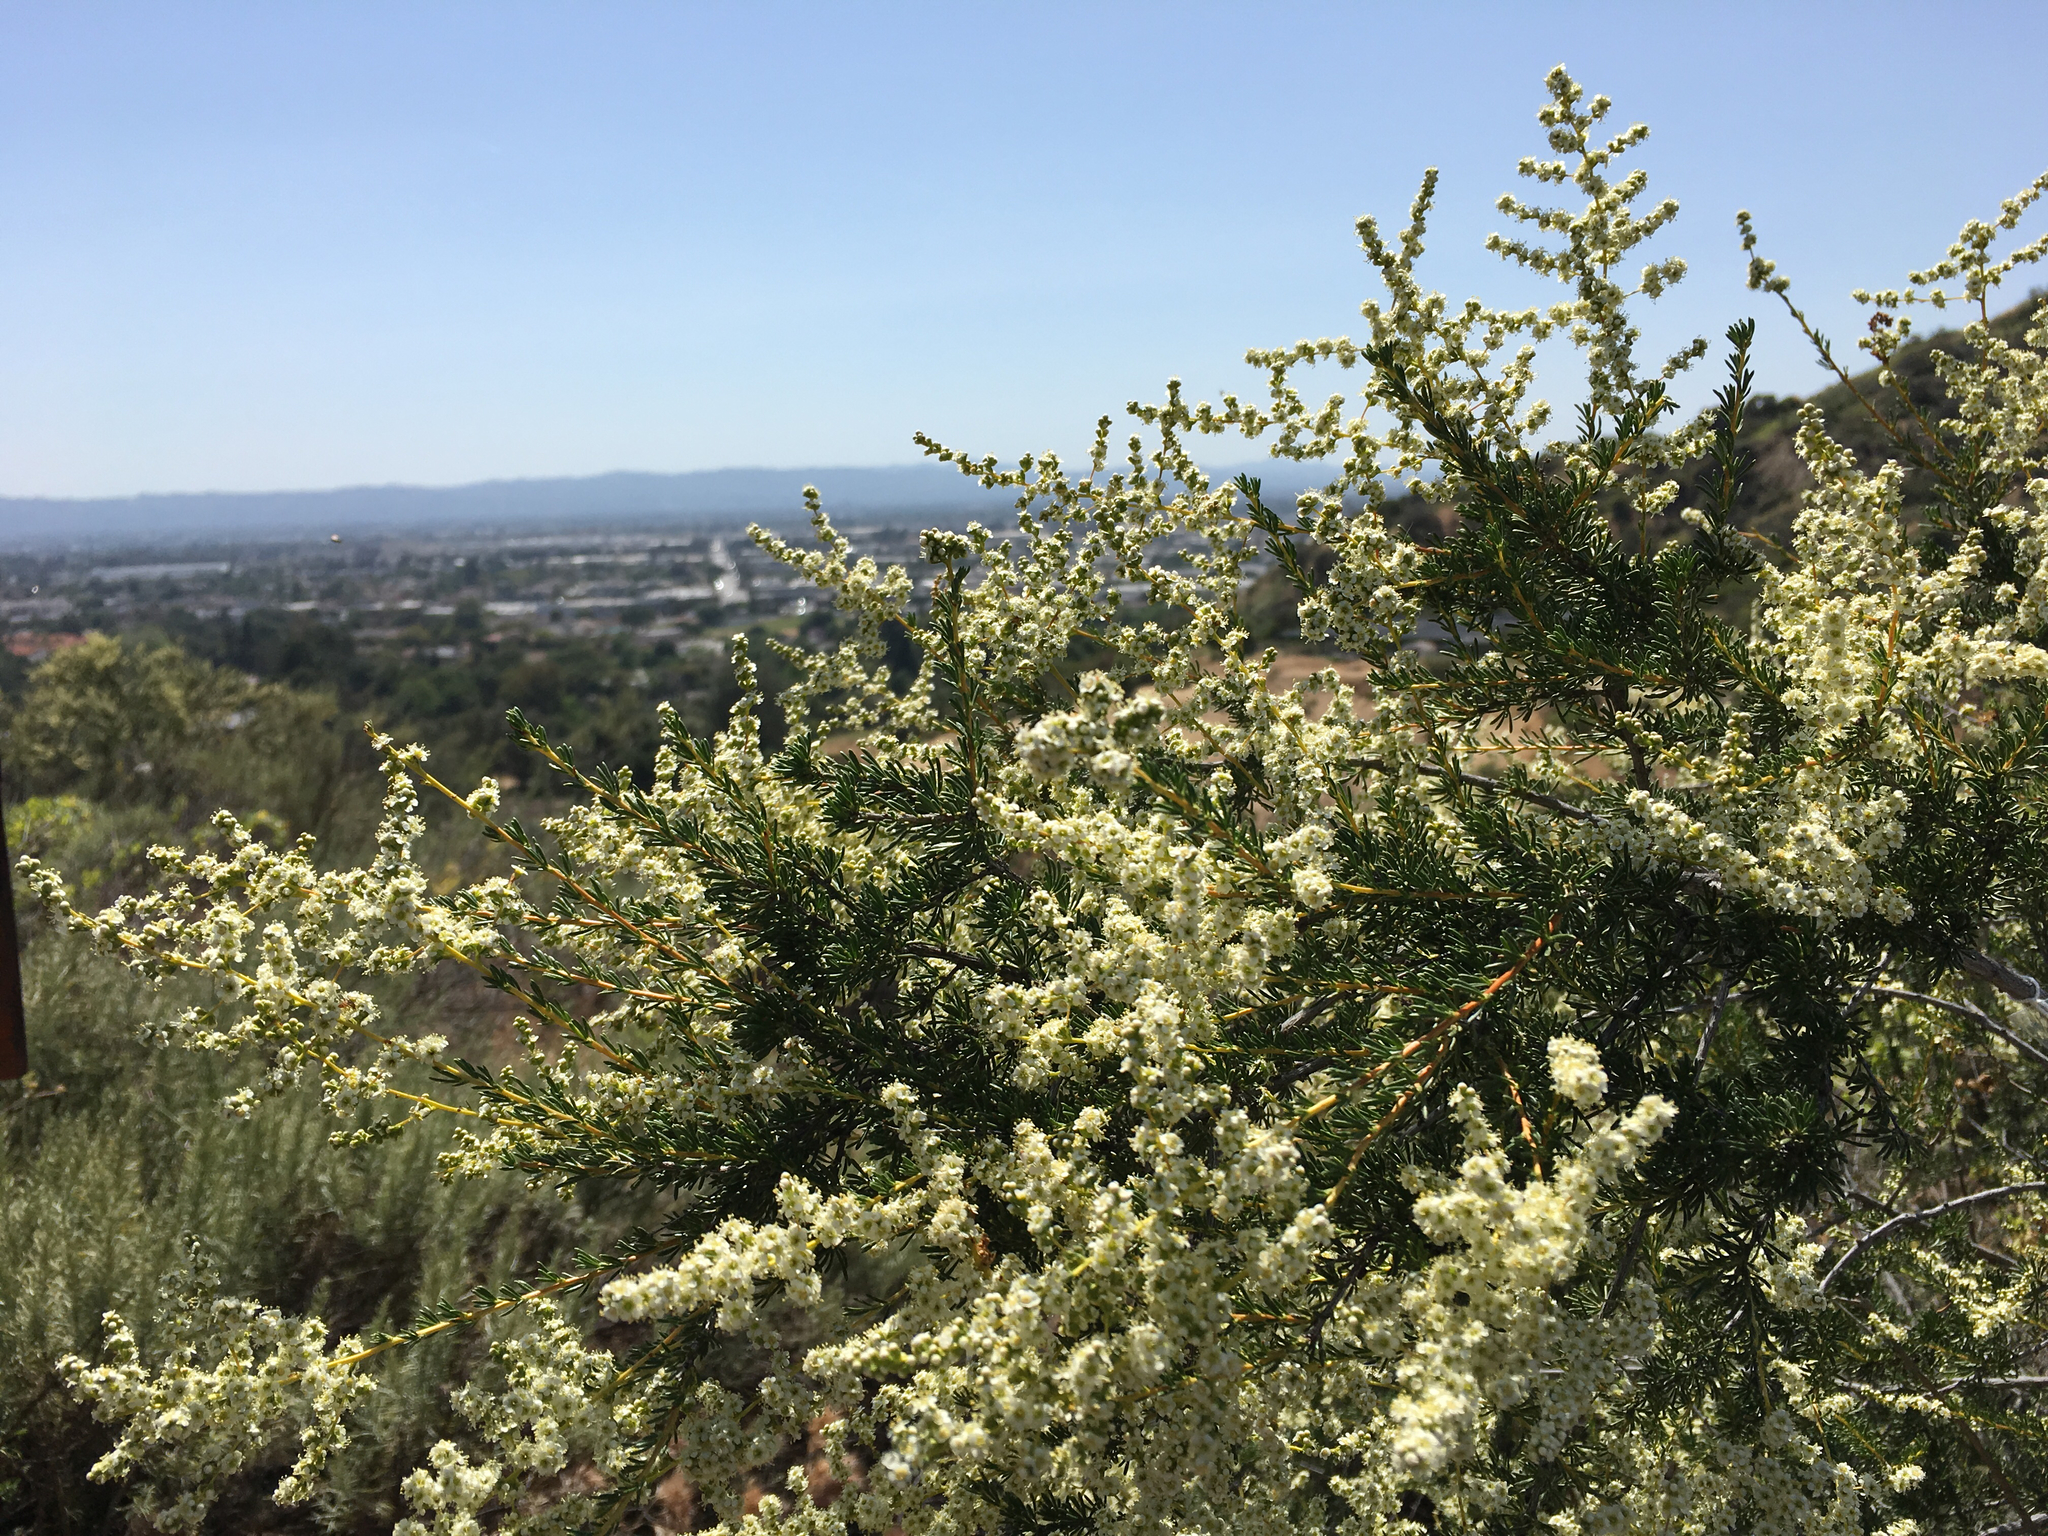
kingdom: Plantae
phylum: Tracheophyta
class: Magnoliopsida
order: Rosales
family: Rosaceae
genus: Adenostoma
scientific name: Adenostoma fasciculatum
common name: Chamise
